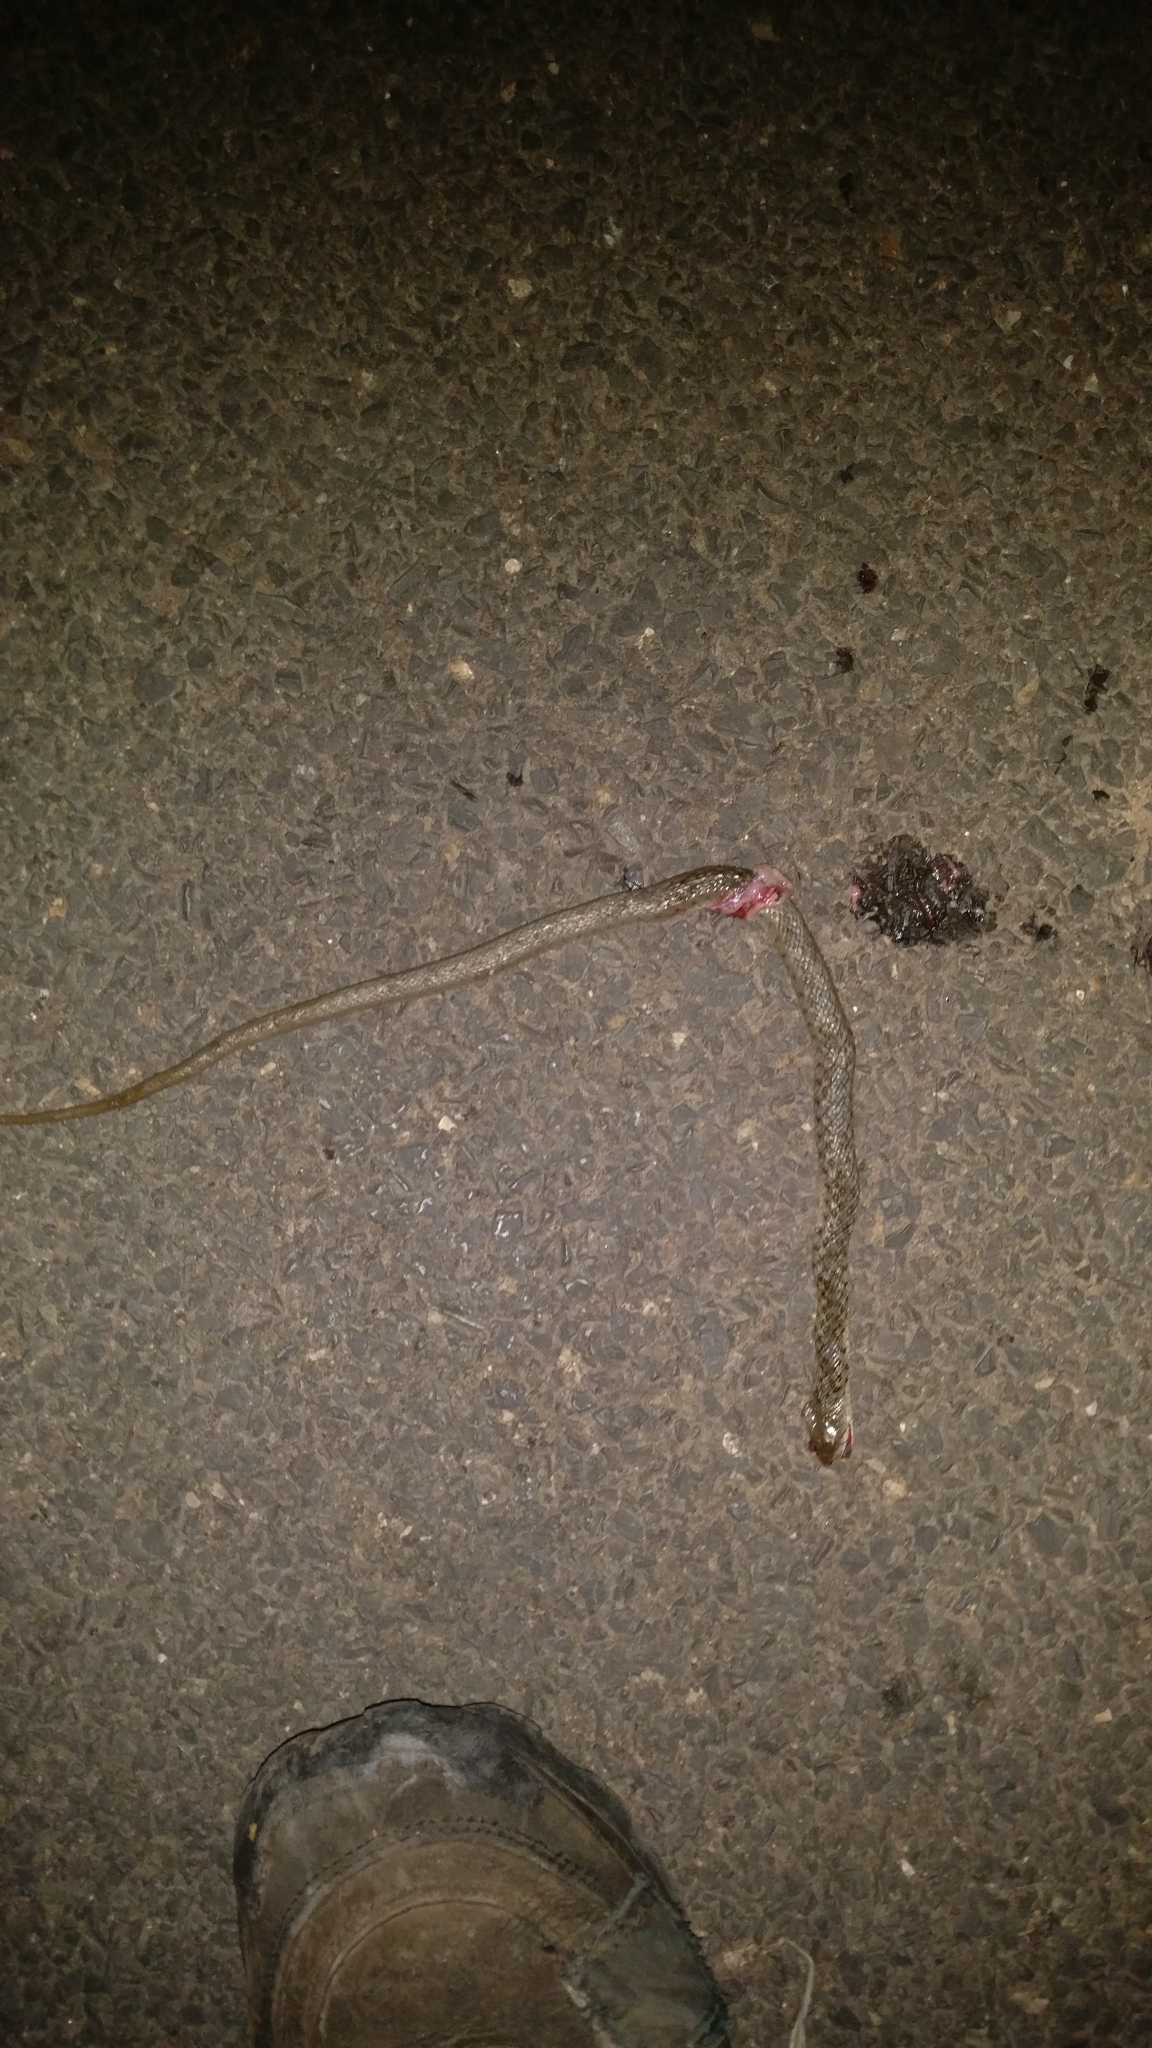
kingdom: Animalia
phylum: Chordata
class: Squamata
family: Colubridae
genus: Fowlea
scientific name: Fowlea piscator
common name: Asiatic water snake
